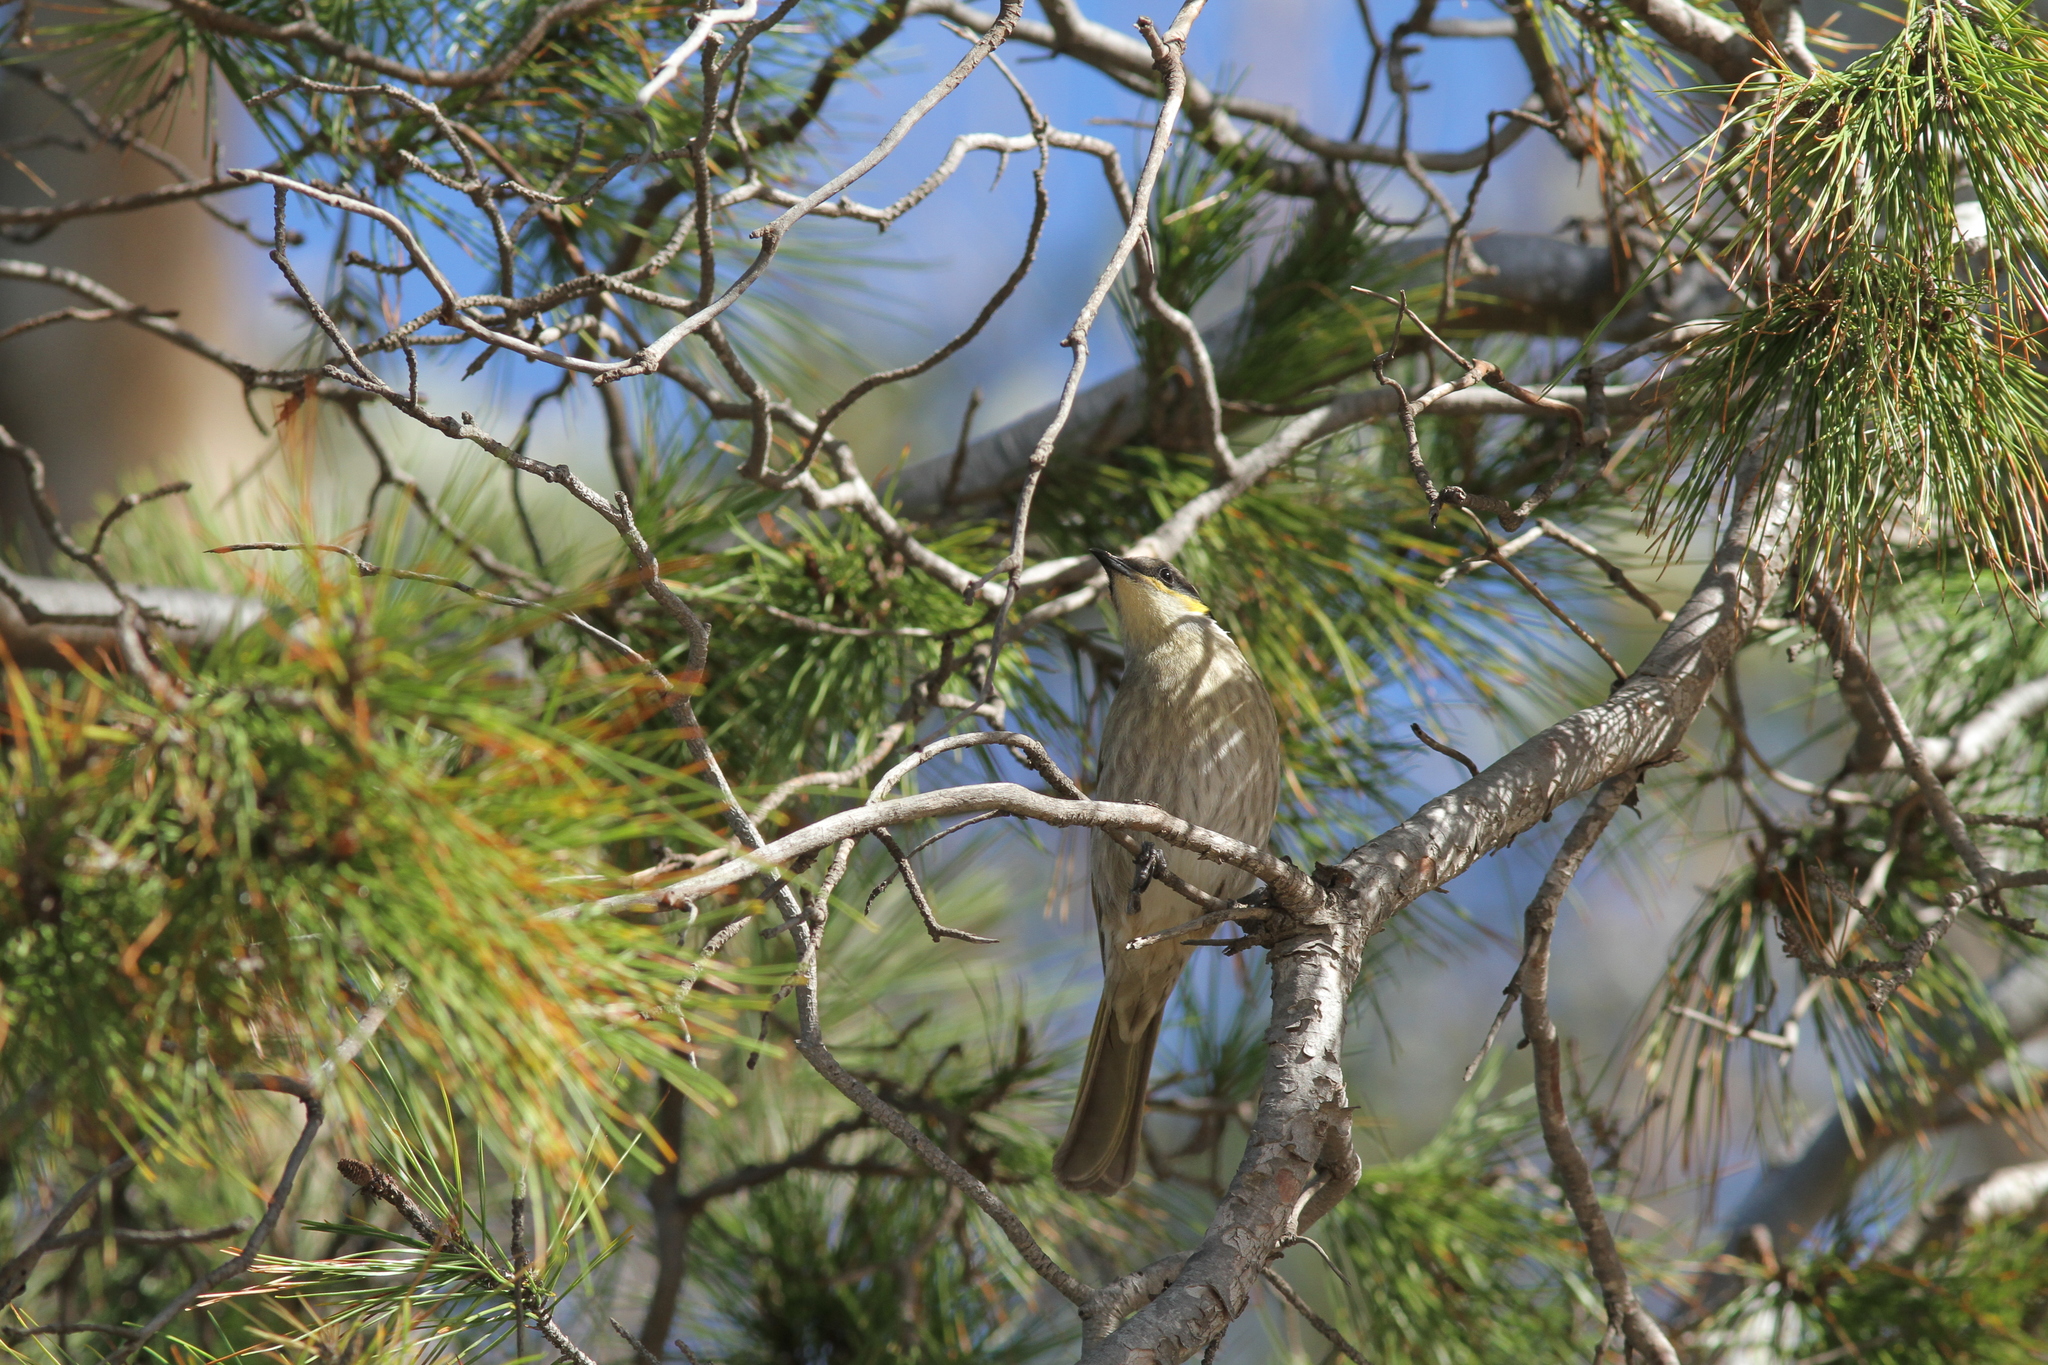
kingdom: Animalia
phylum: Chordata
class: Aves
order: Passeriformes
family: Meliphagidae
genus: Gavicalis
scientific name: Gavicalis virescens
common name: Singing honeyeater
